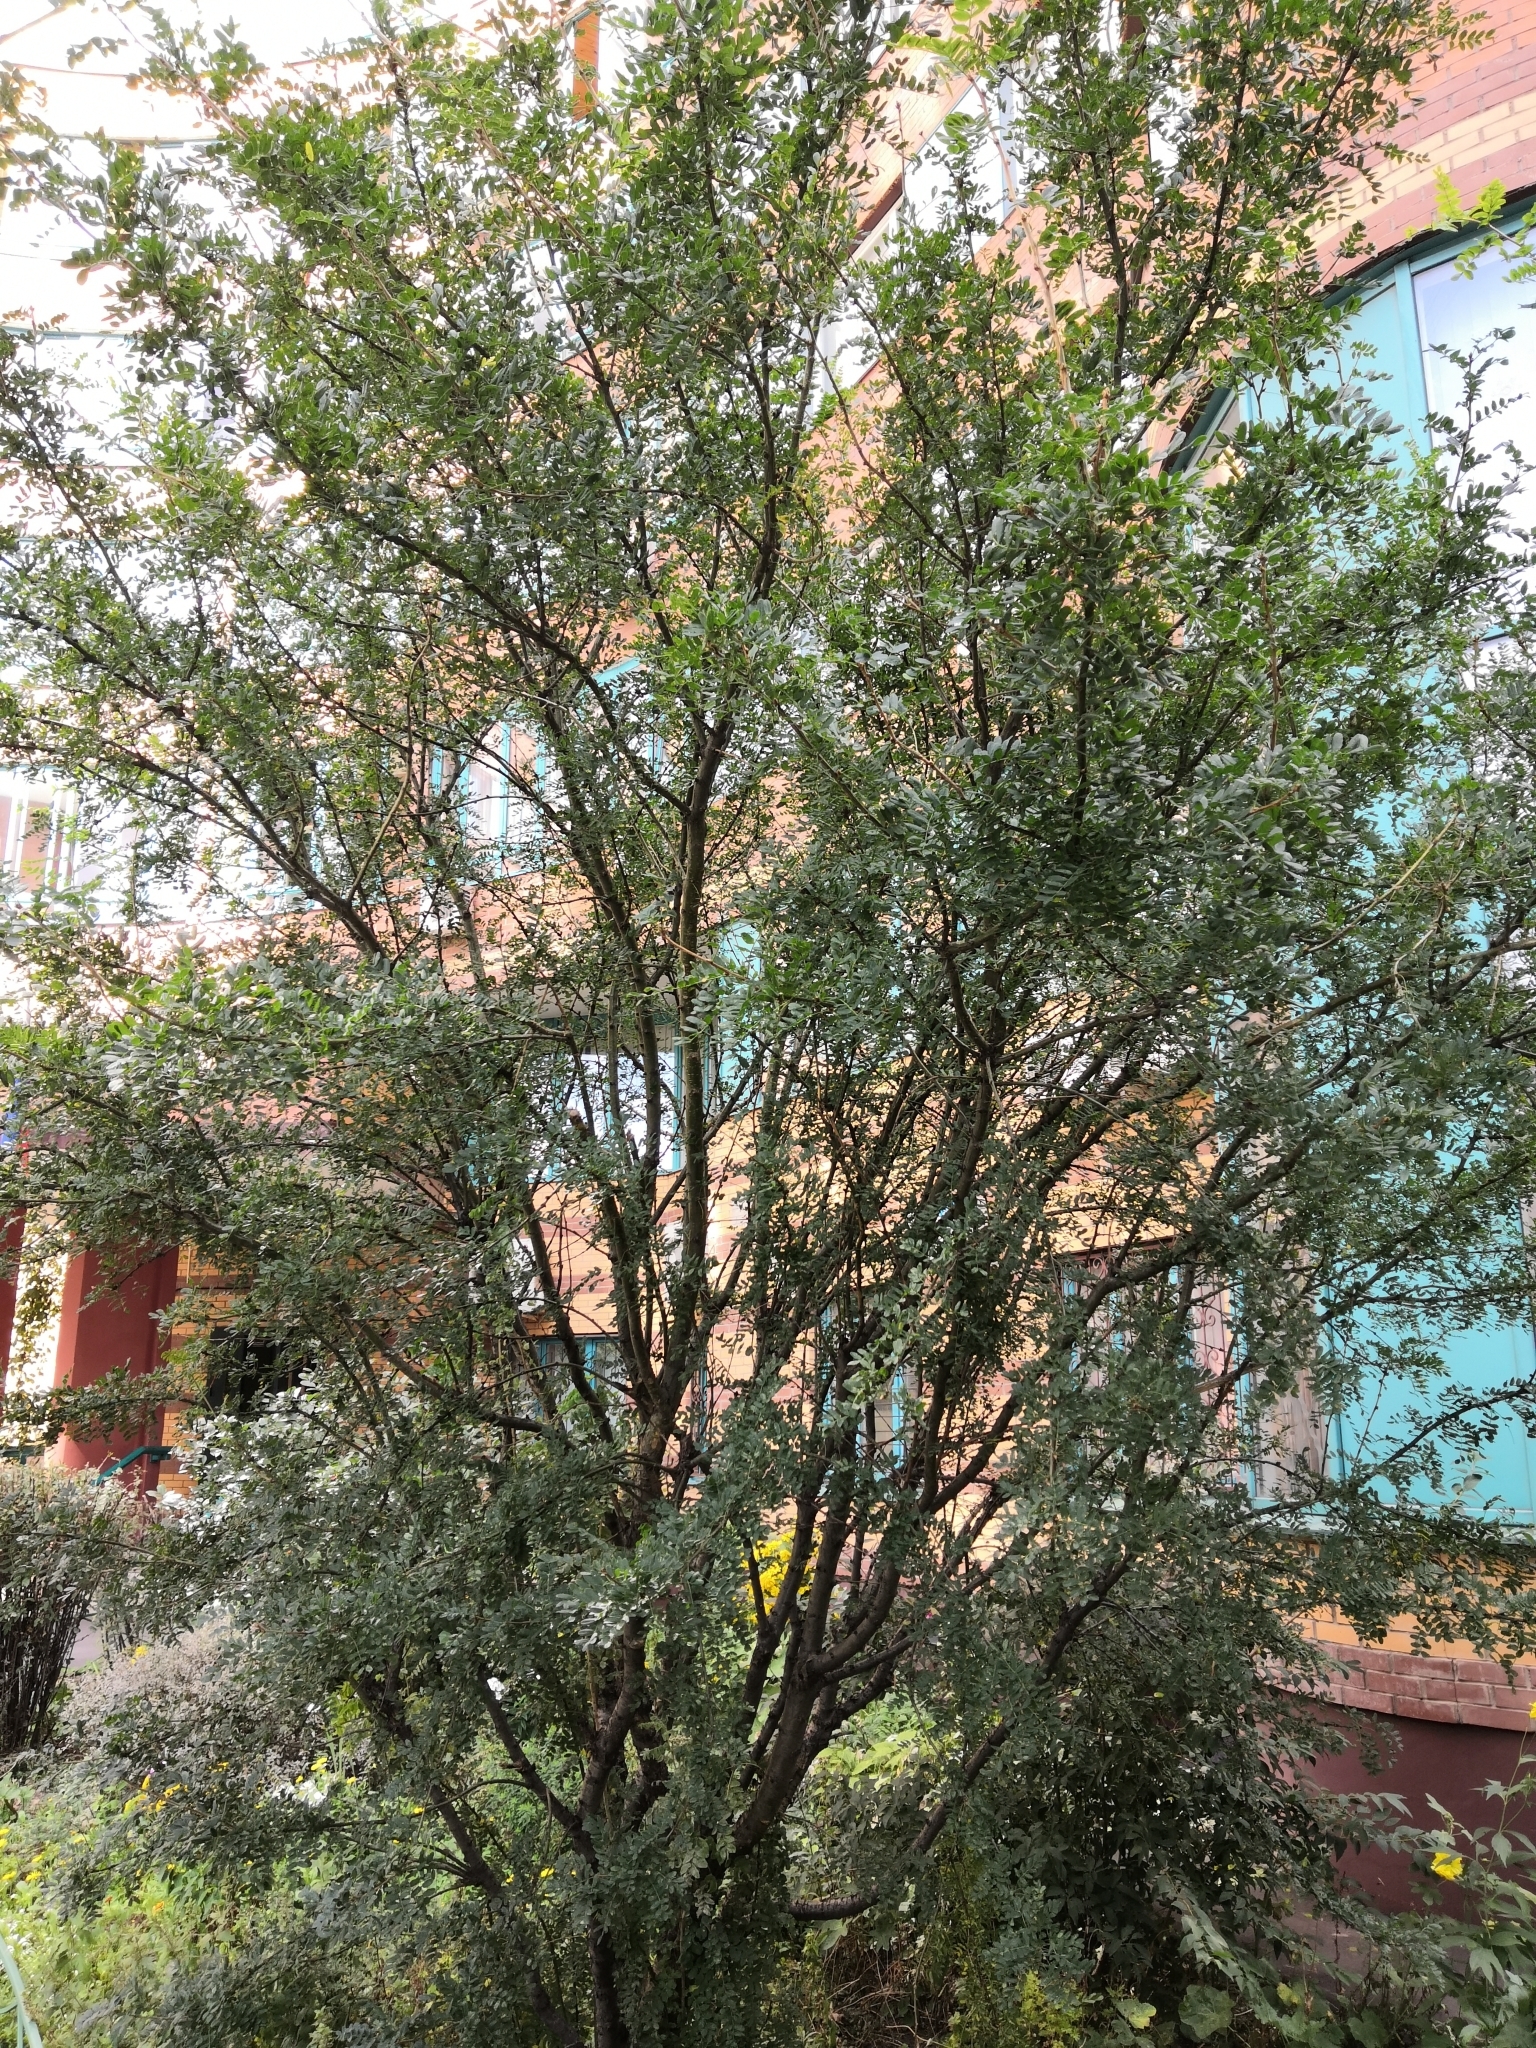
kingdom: Plantae
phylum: Tracheophyta
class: Magnoliopsida
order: Fabales
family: Fabaceae
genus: Caragana
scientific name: Caragana arborescens
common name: Siberian peashrub
